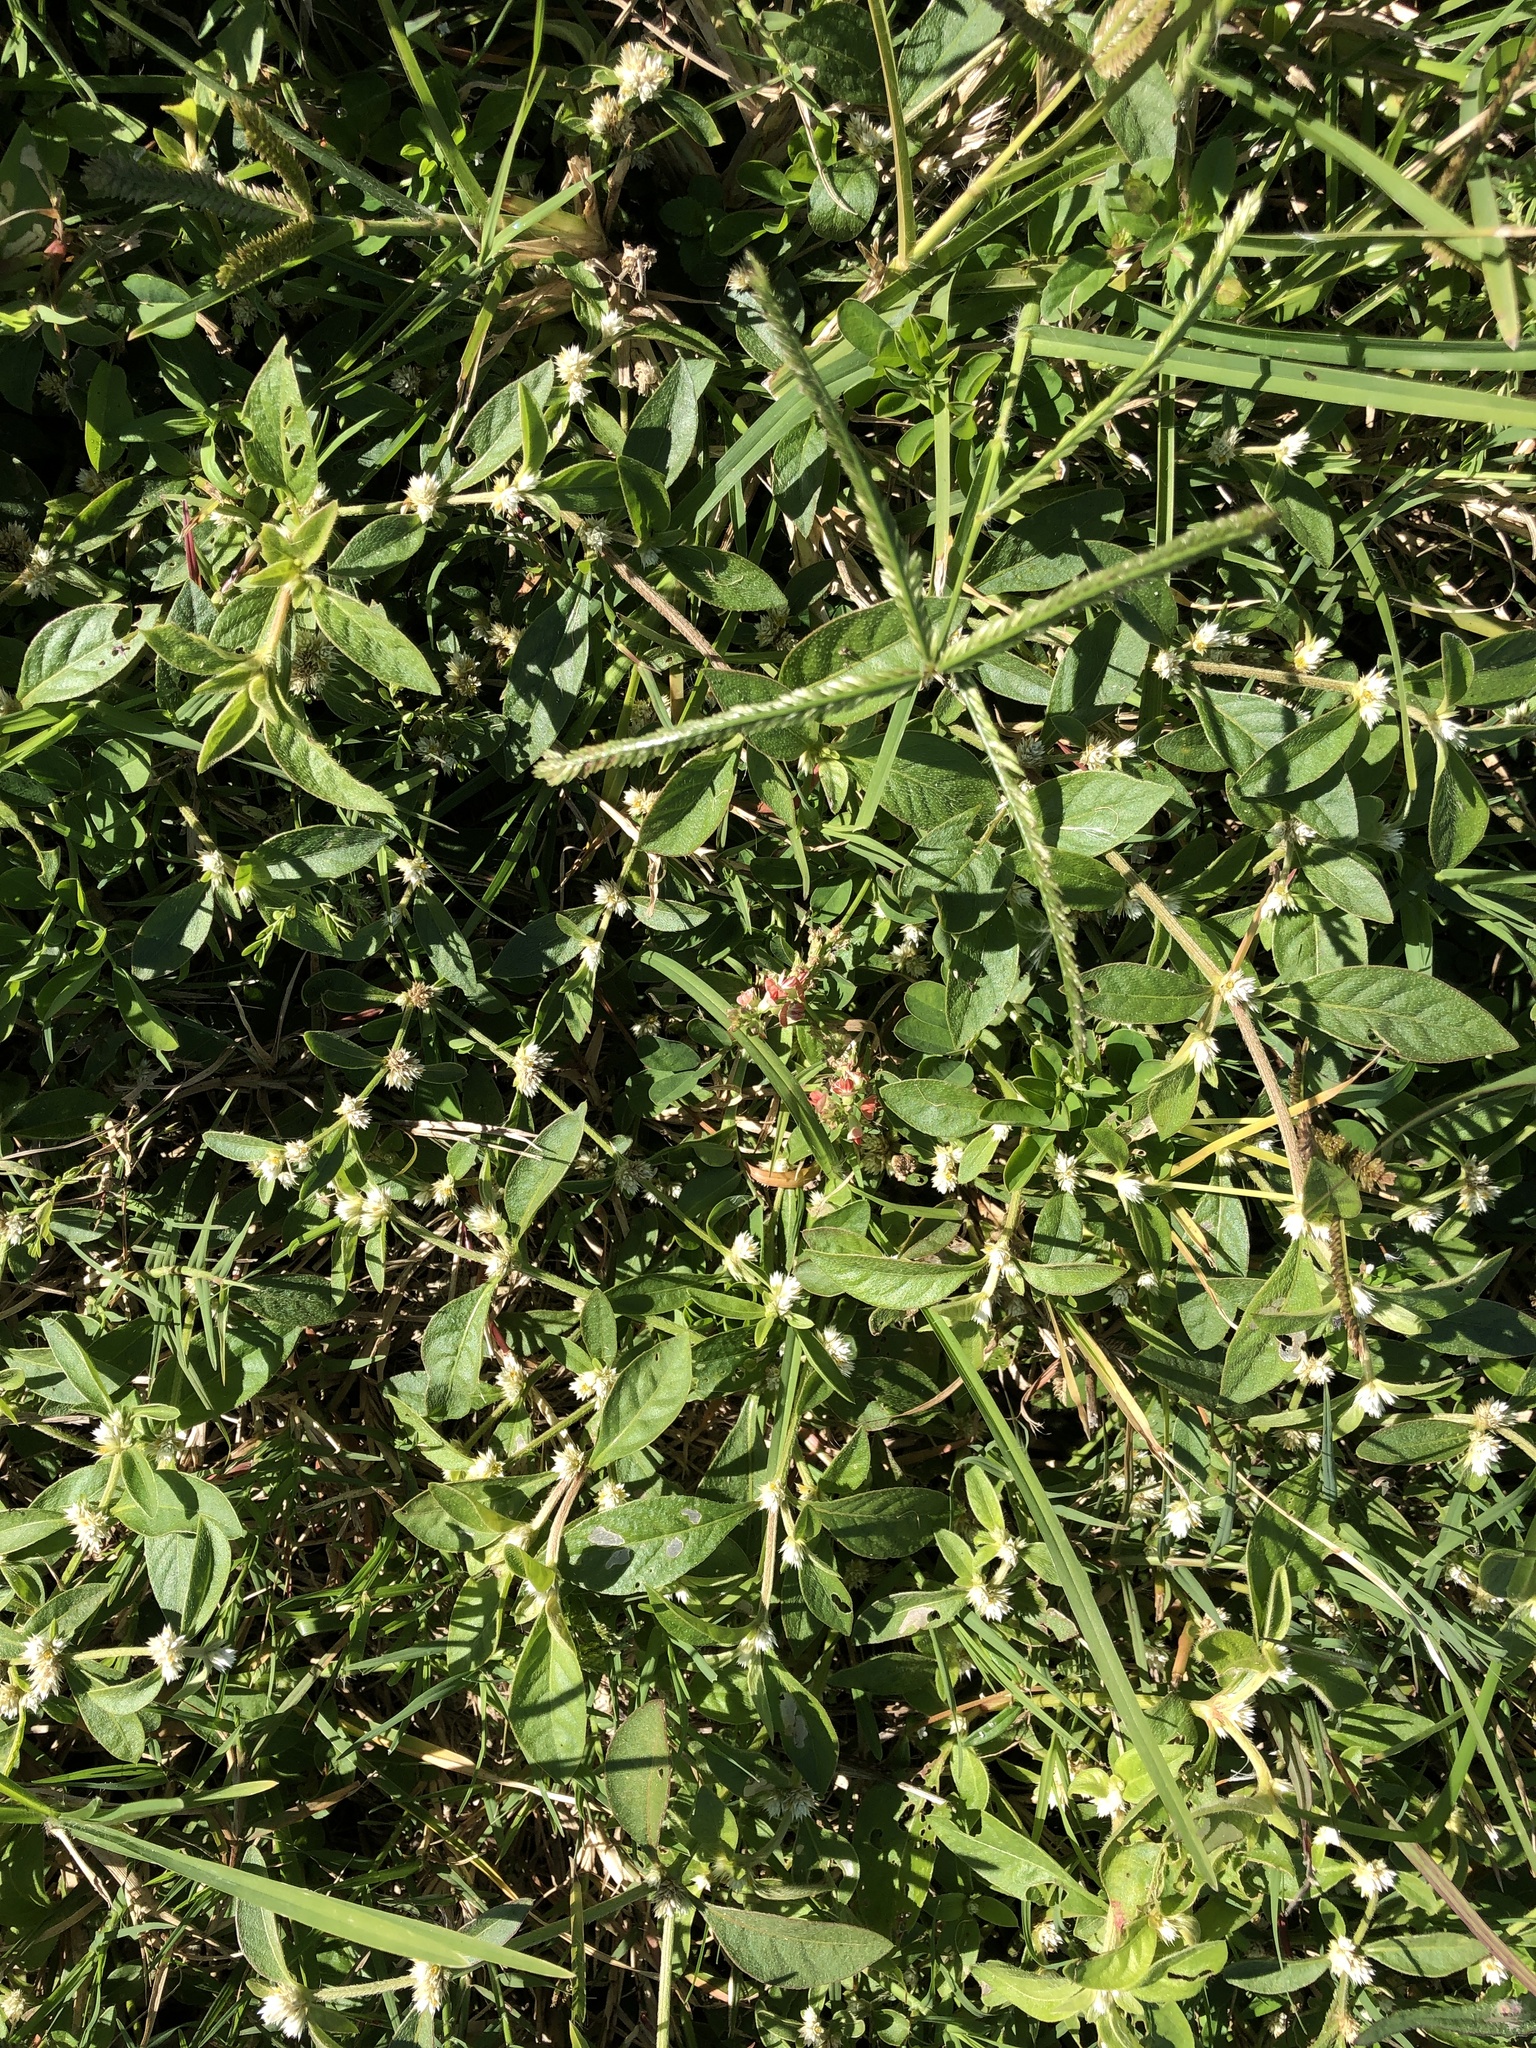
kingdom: Plantae
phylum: Tracheophyta
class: Magnoliopsida
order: Caryophyllales
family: Amaranthaceae
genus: Alternanthera
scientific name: Alternanthera ficoidea
